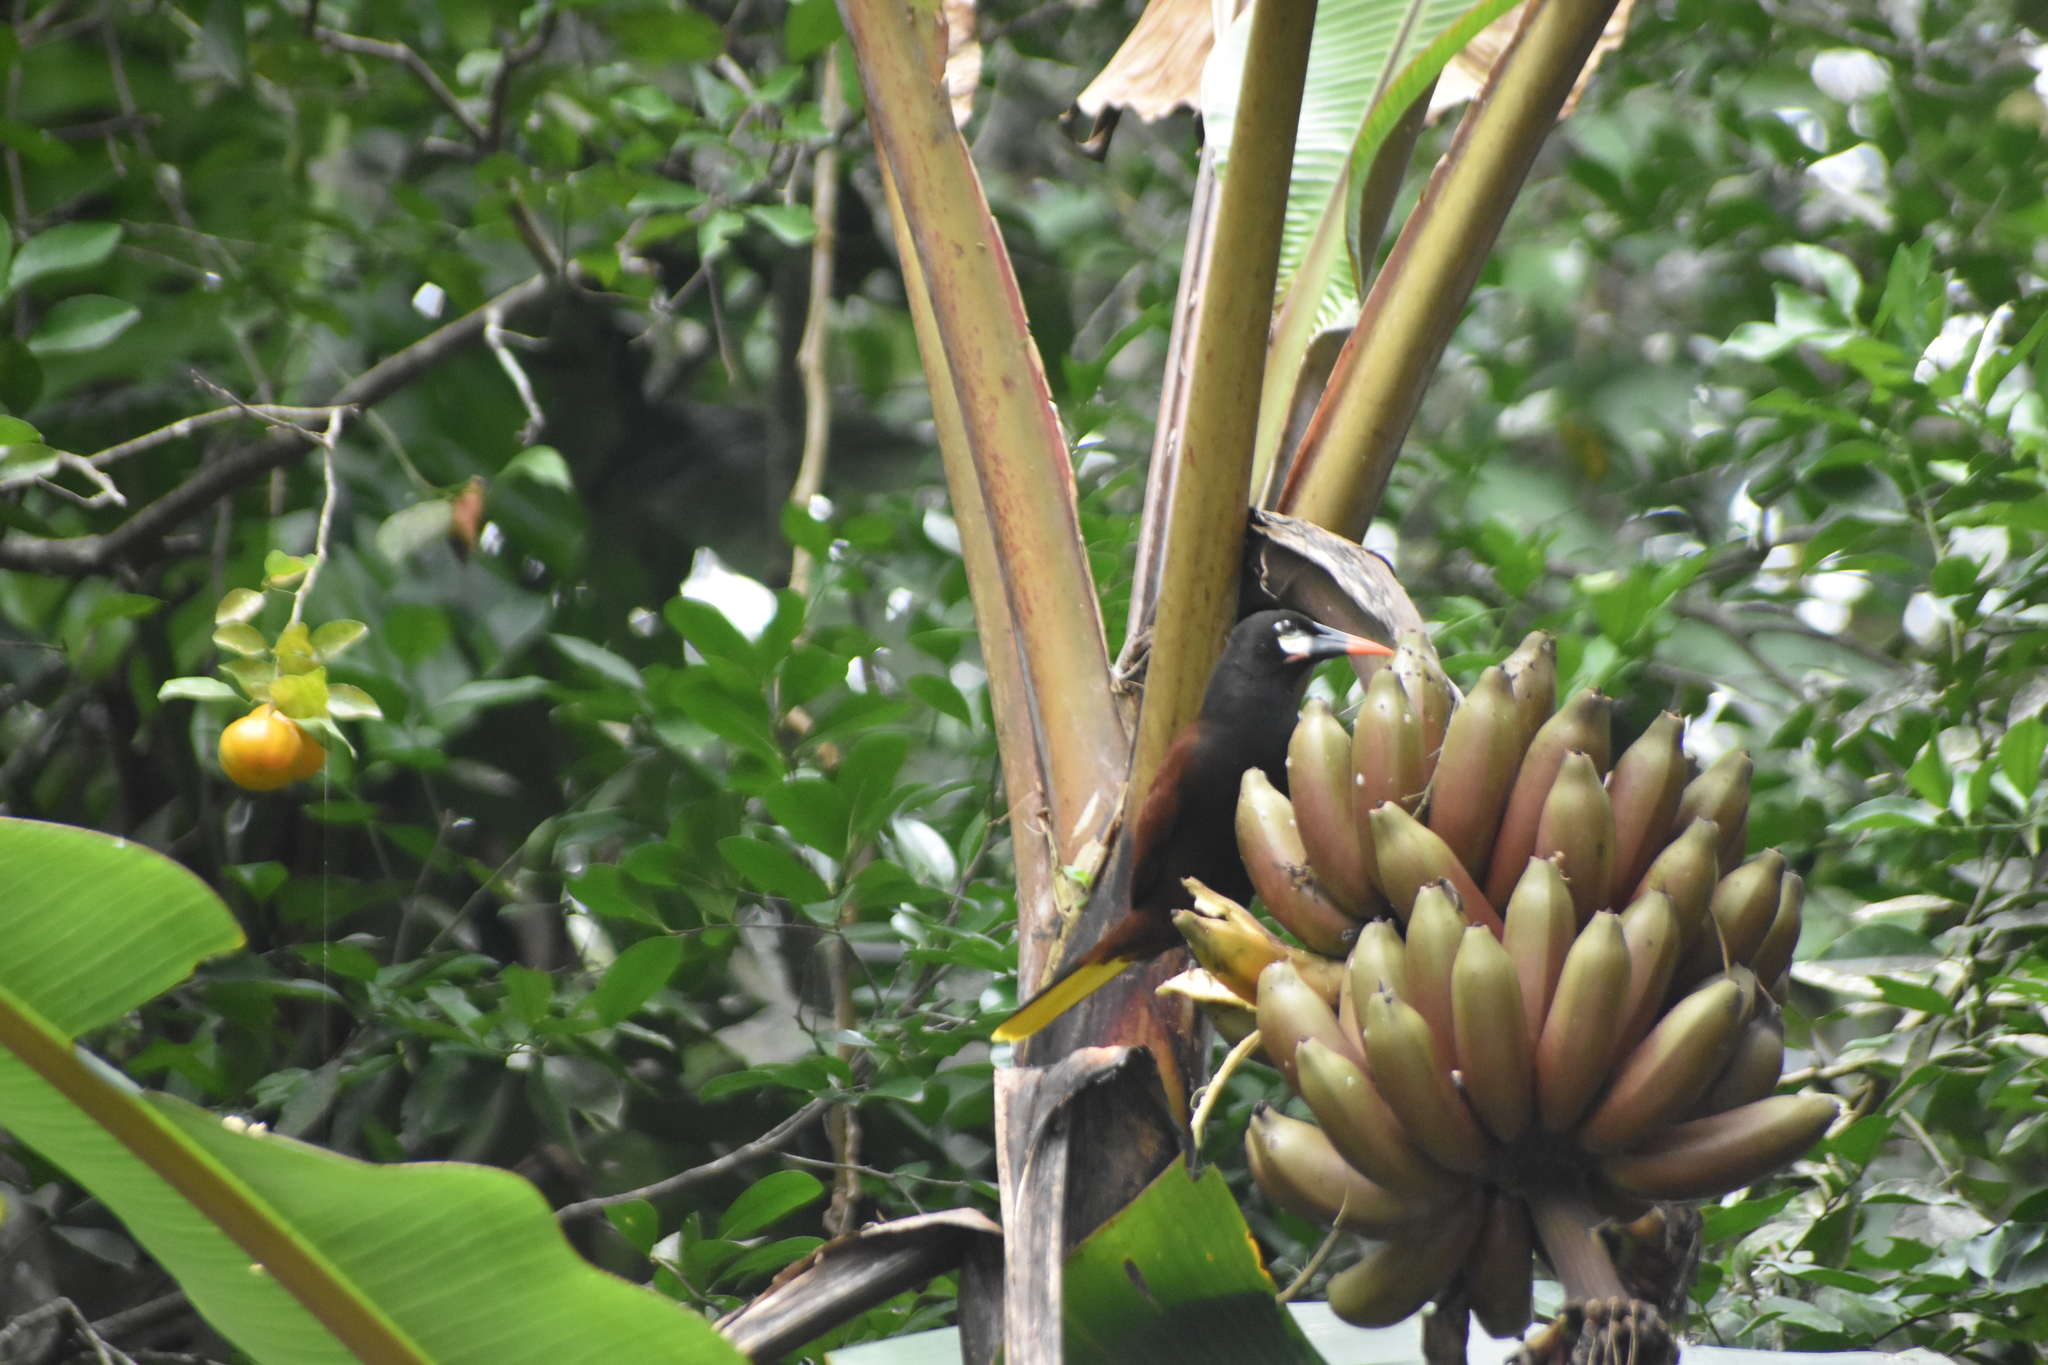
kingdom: Animalia
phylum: Chordata
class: Aves
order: Passeriformes
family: Icteridae
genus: Psarocolius
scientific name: Psarocolius montezuma
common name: Montezuma oropendola
